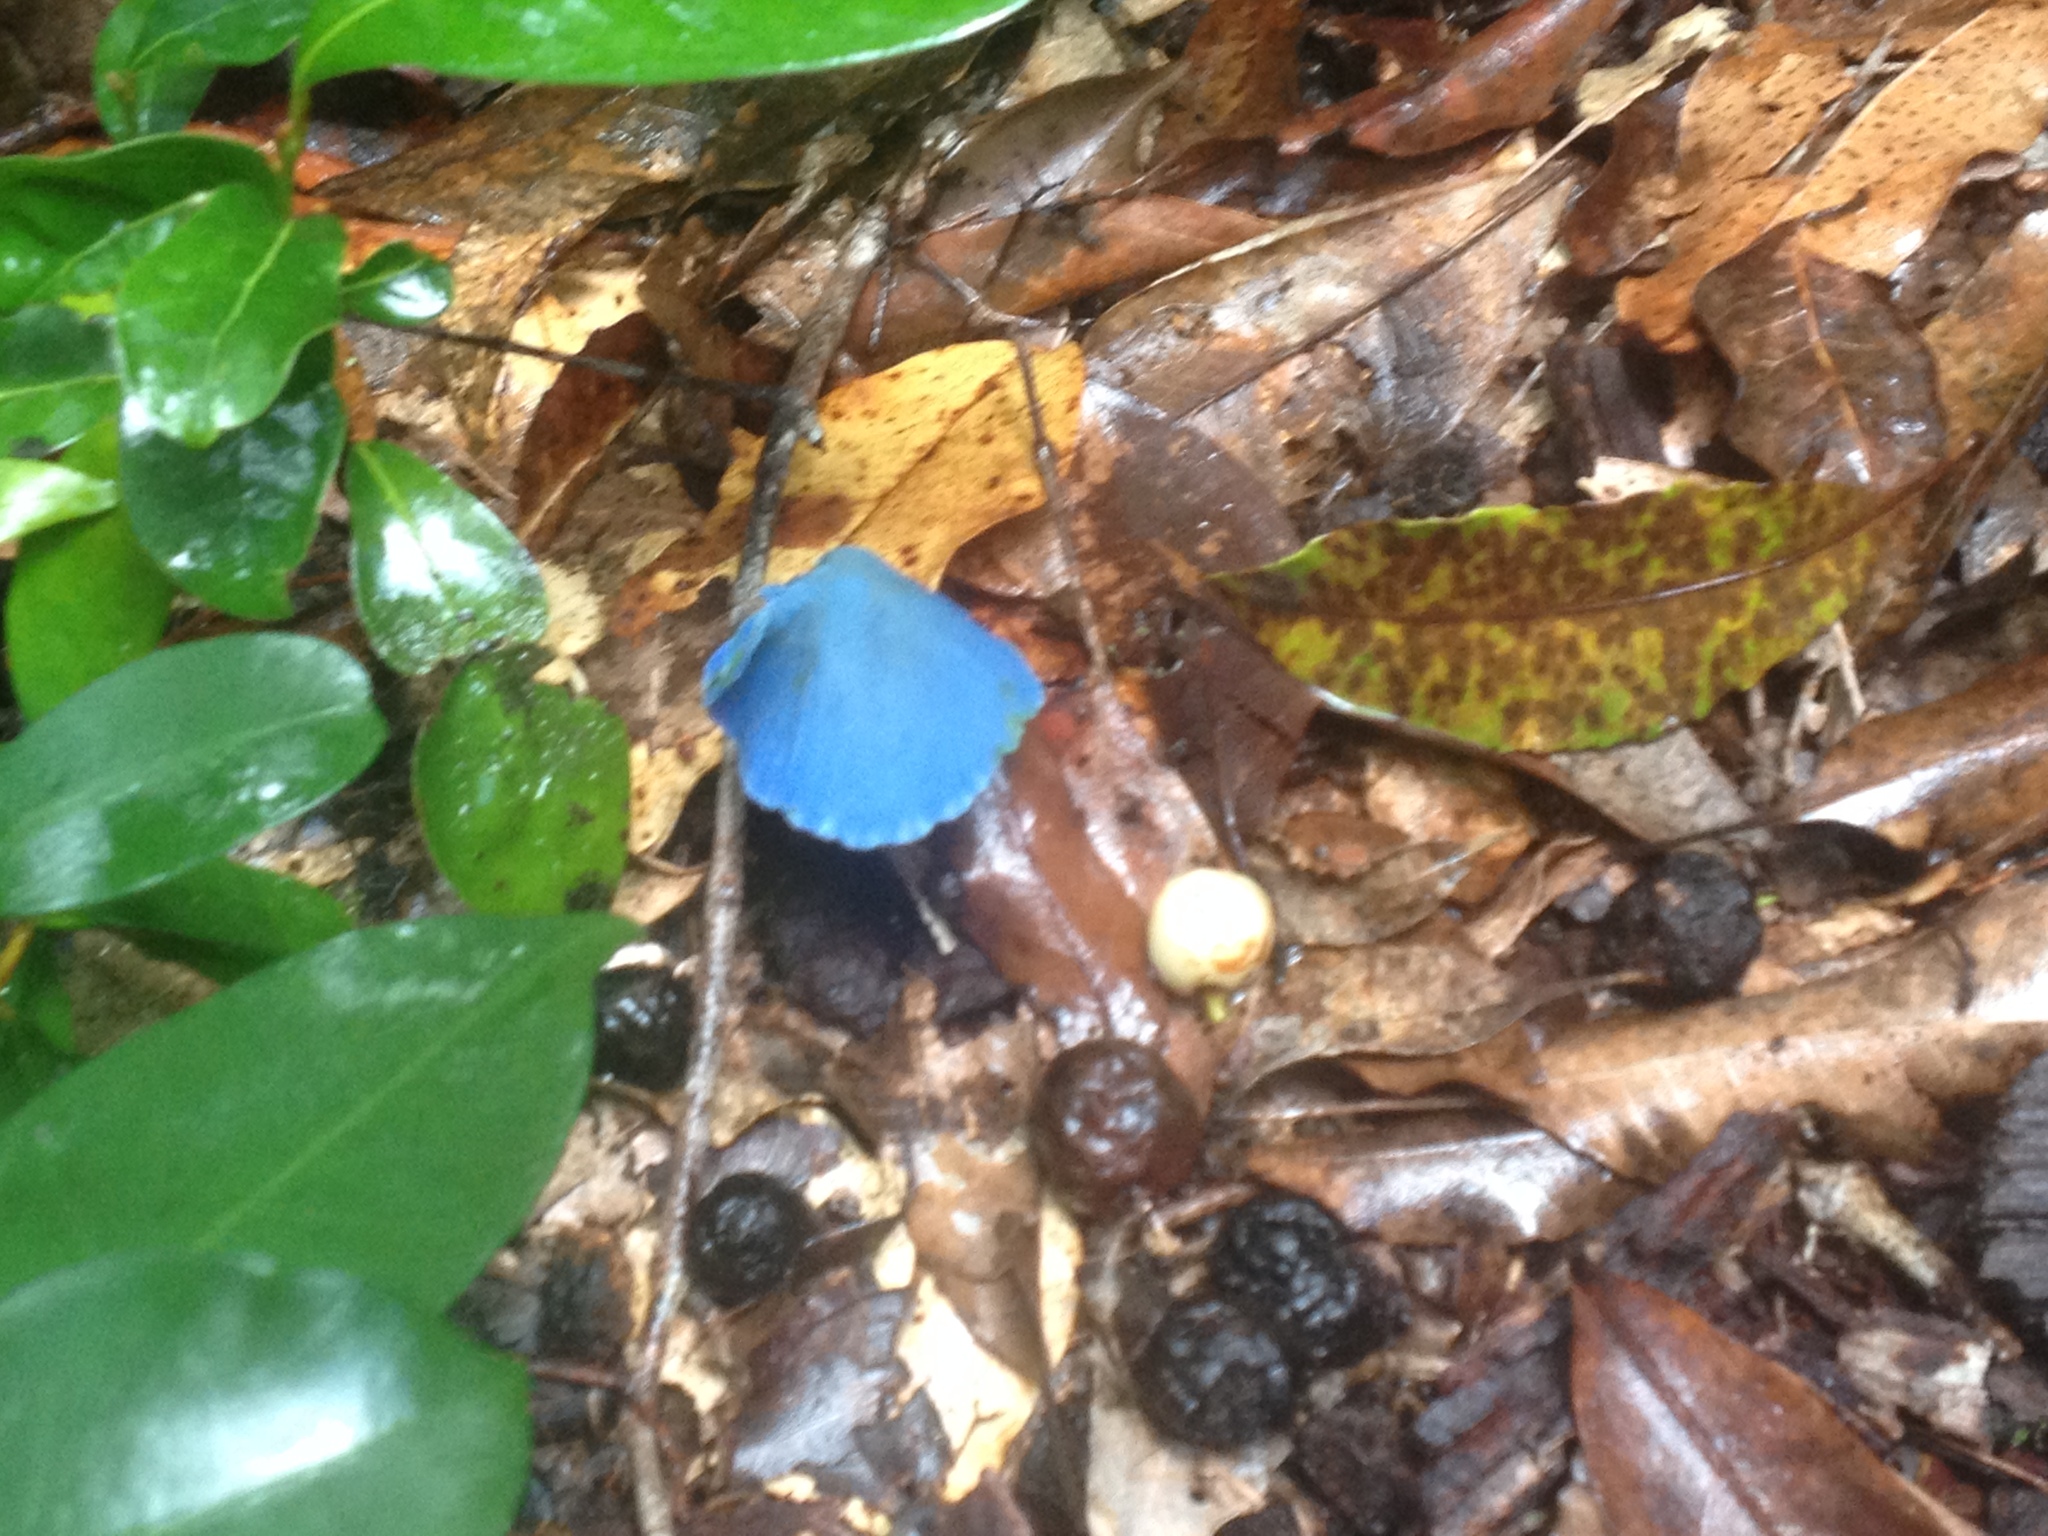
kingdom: Fungi
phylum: Basidiomycota
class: Agaricomycetes
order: Agaricales
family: Entolomataceae
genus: Entoloma
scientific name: Entoloma virescens
